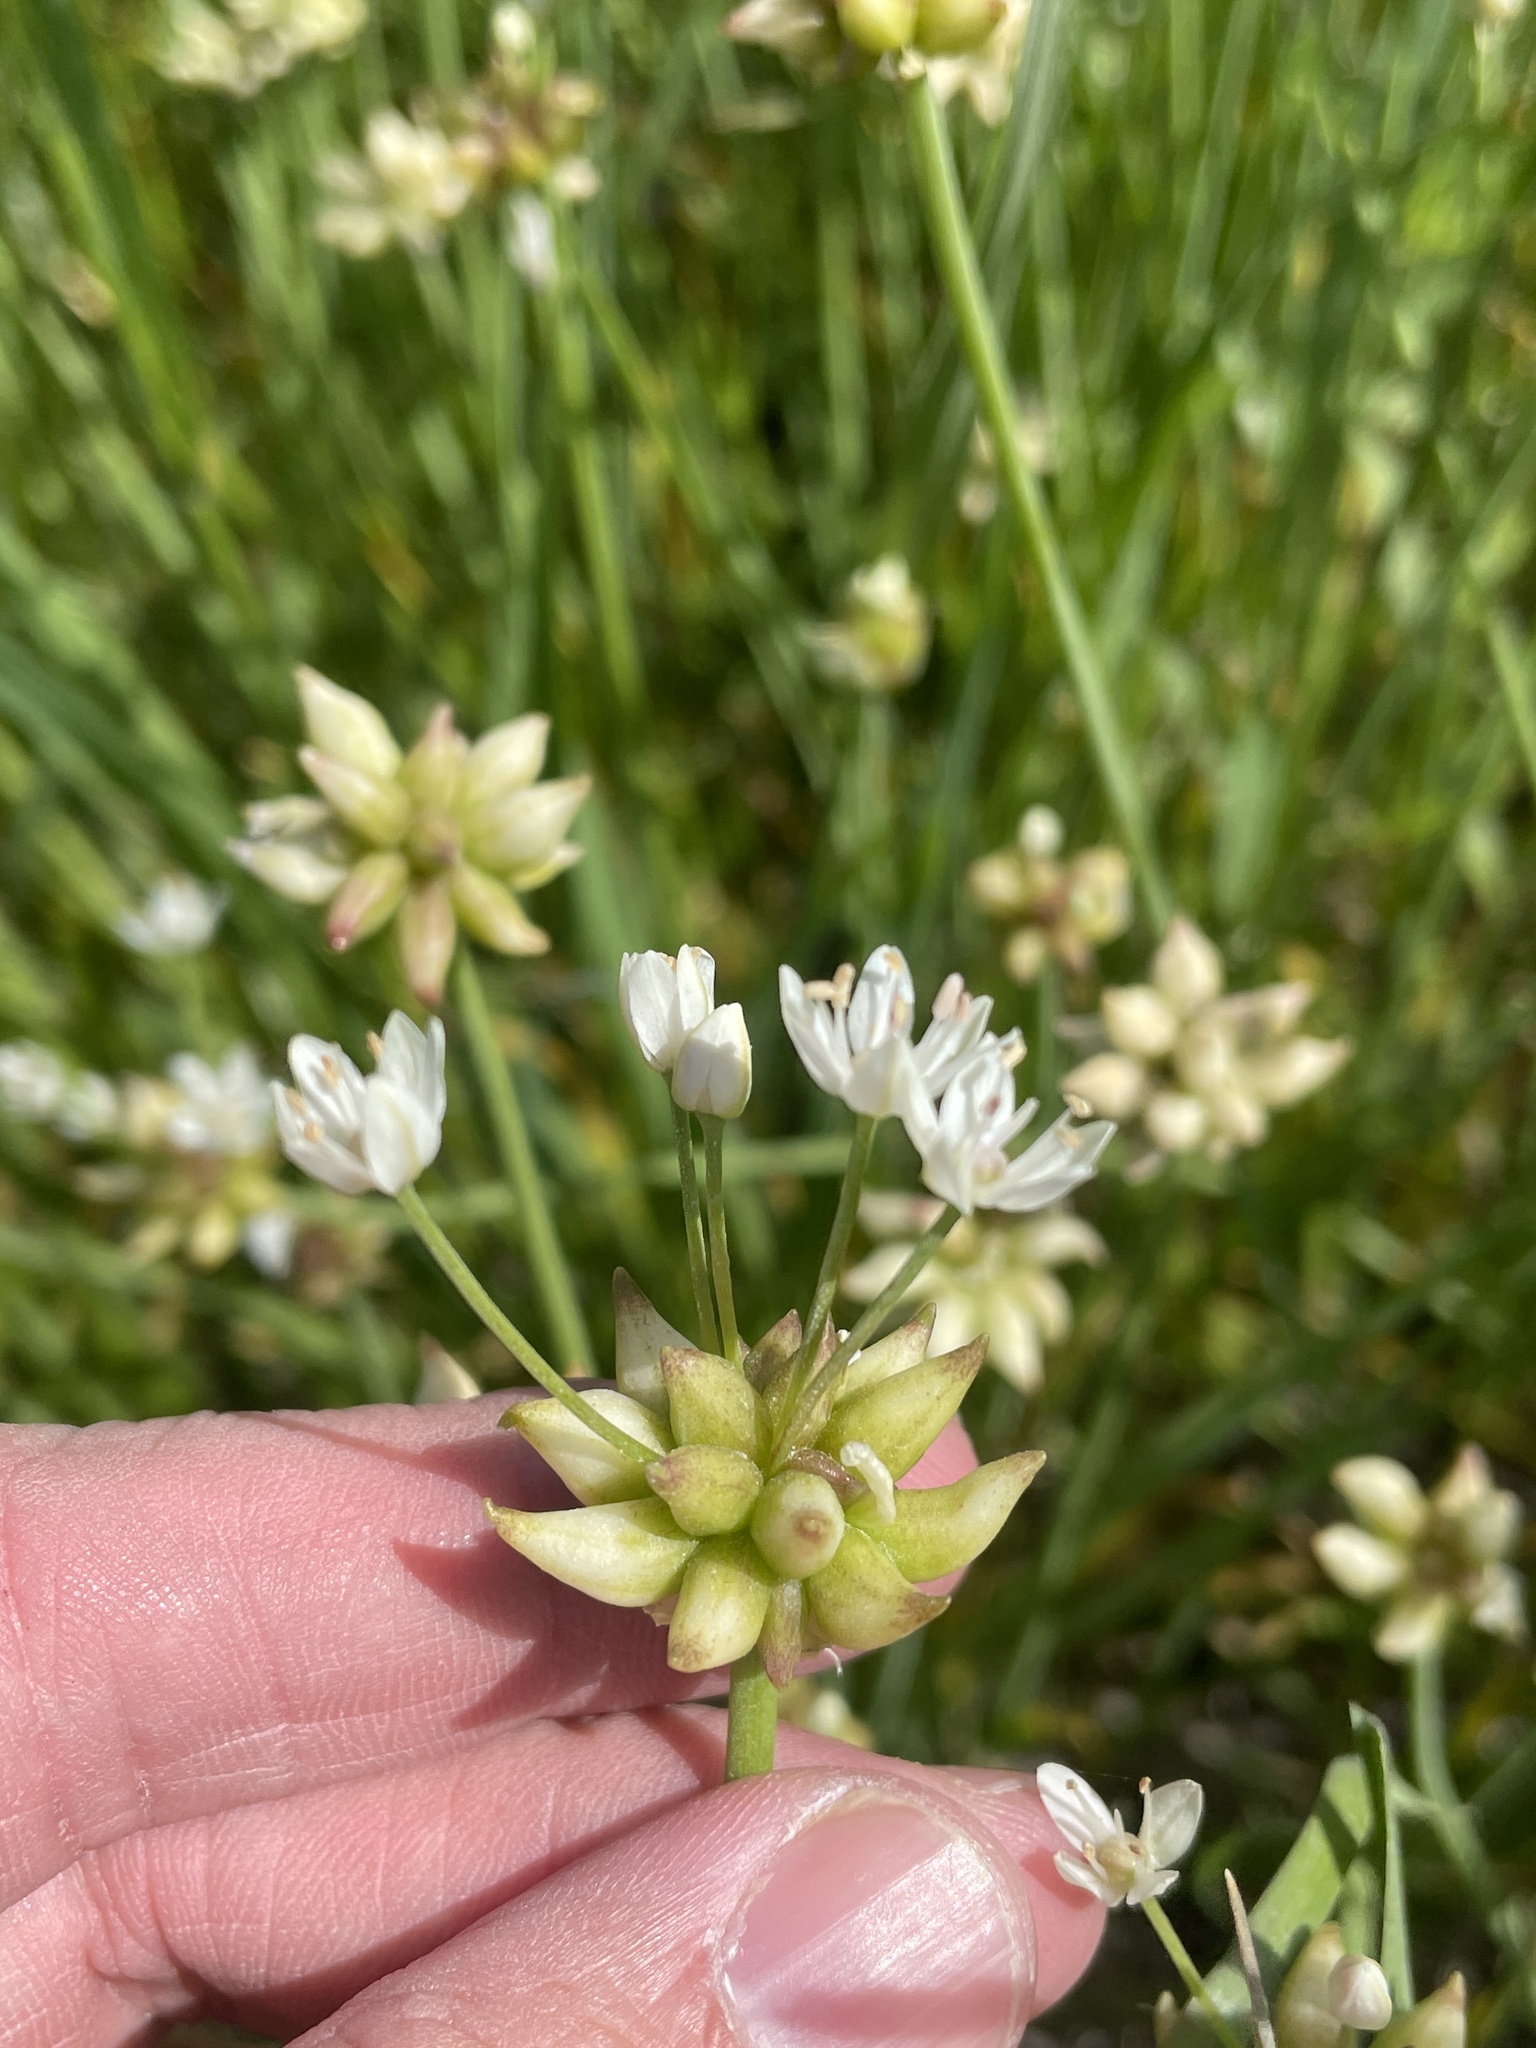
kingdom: Plantae
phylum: Tracheophyta
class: Liliopsida
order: Asparagales
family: Amaryllidaceae
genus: Allium
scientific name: Allium canadense
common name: Meadow garlic
